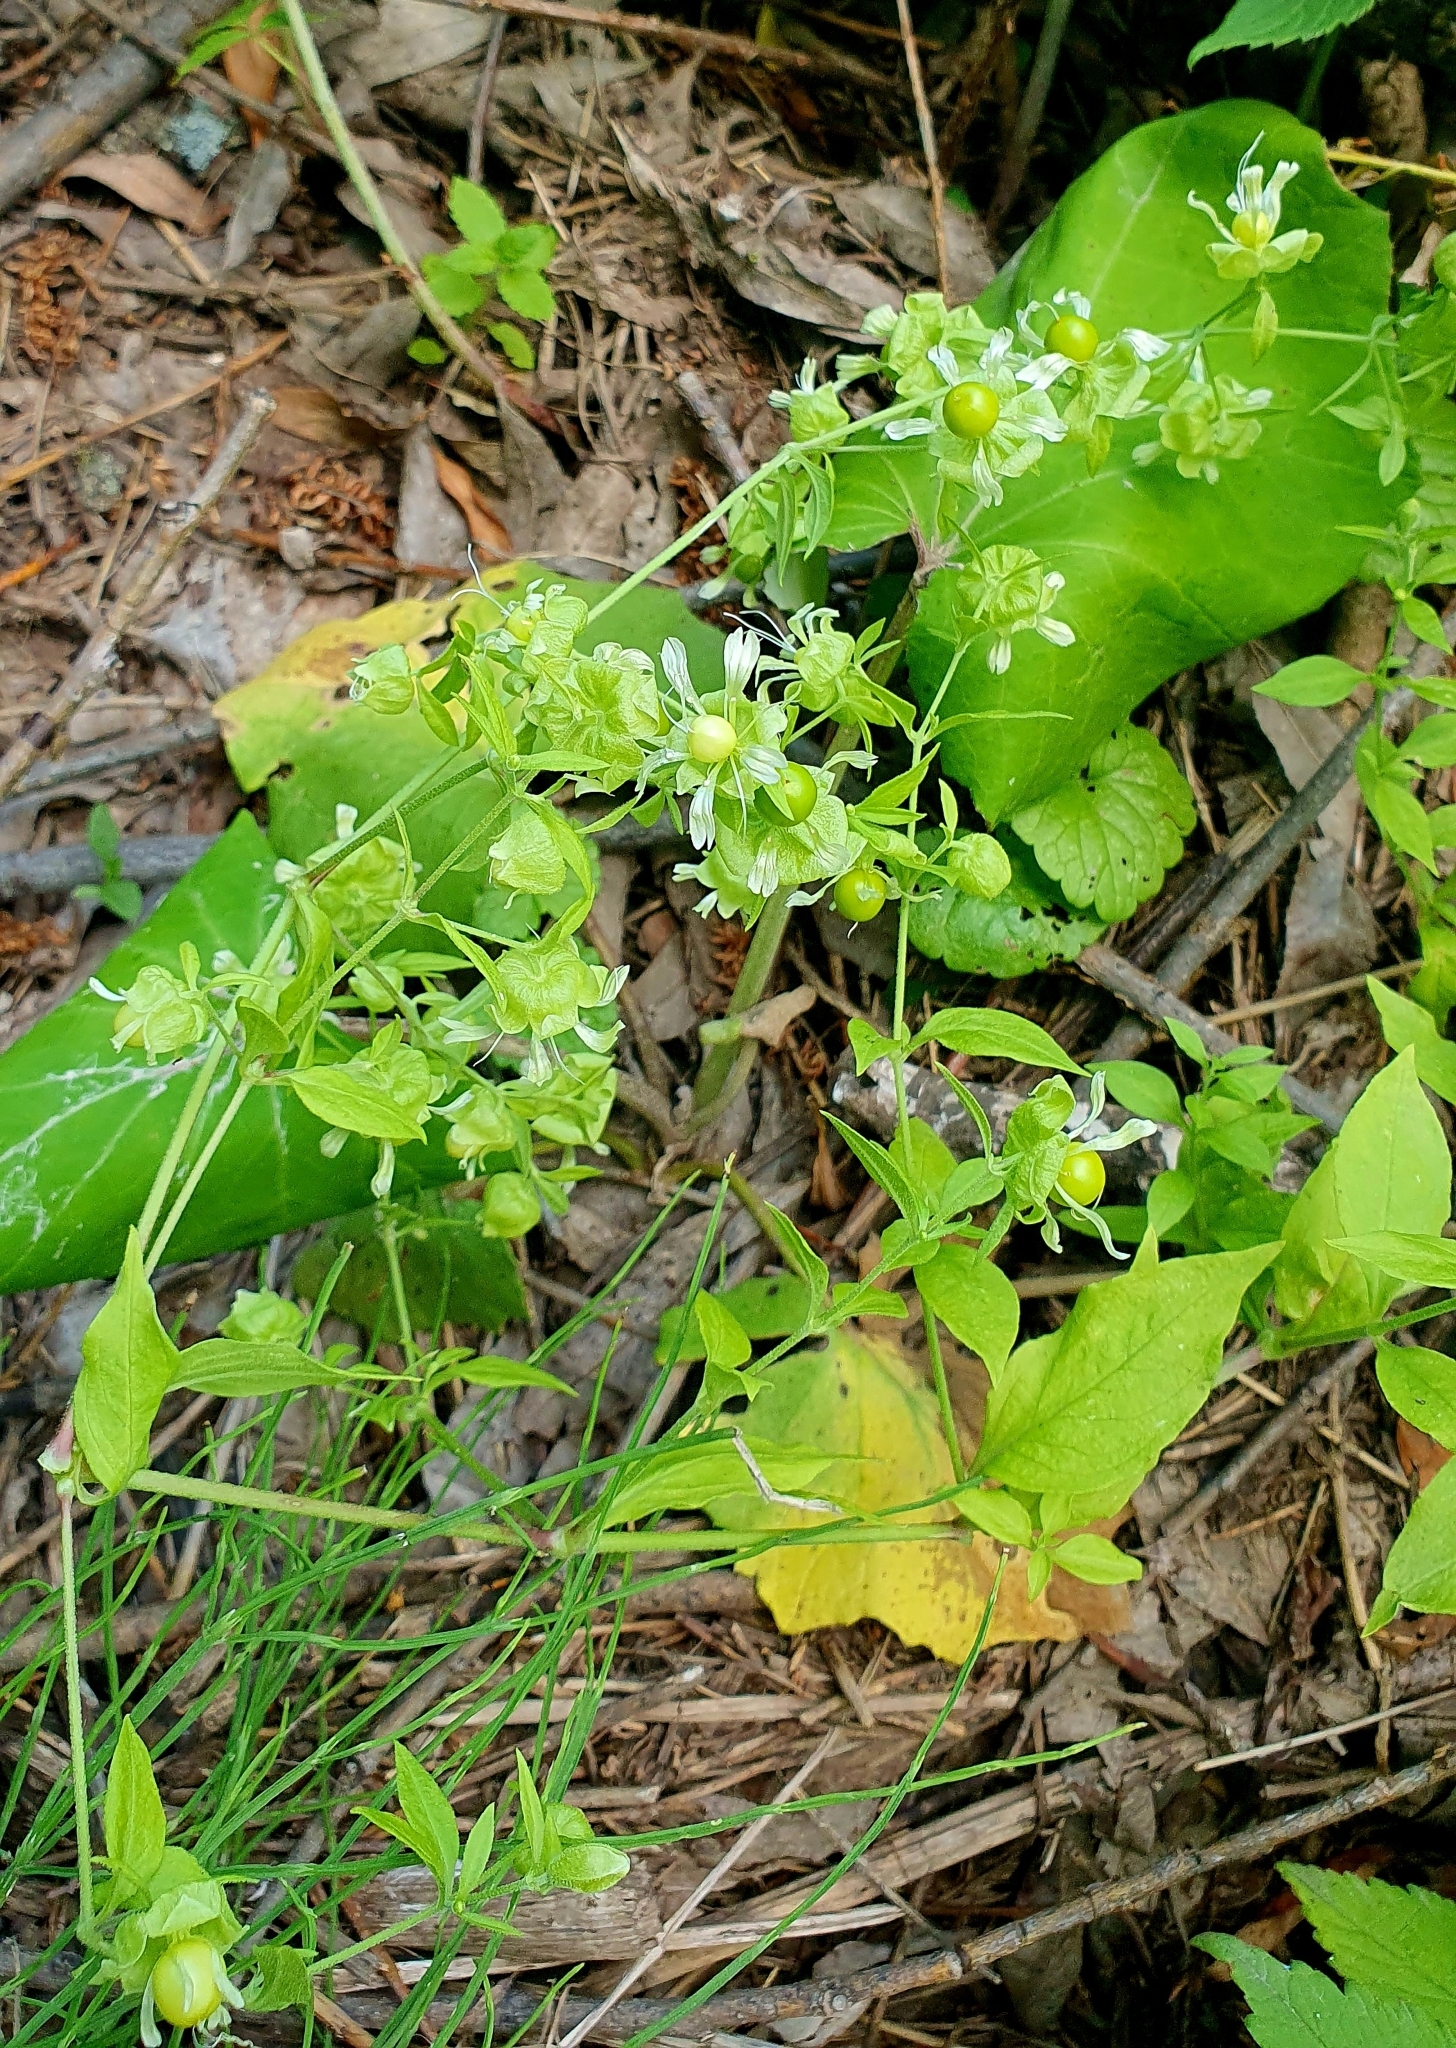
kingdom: Plantae
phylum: Tracheophyta
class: Magnoliopsida
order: Caryophyllales
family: Caryophyllaceae
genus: Silene
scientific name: Silene baccifera
